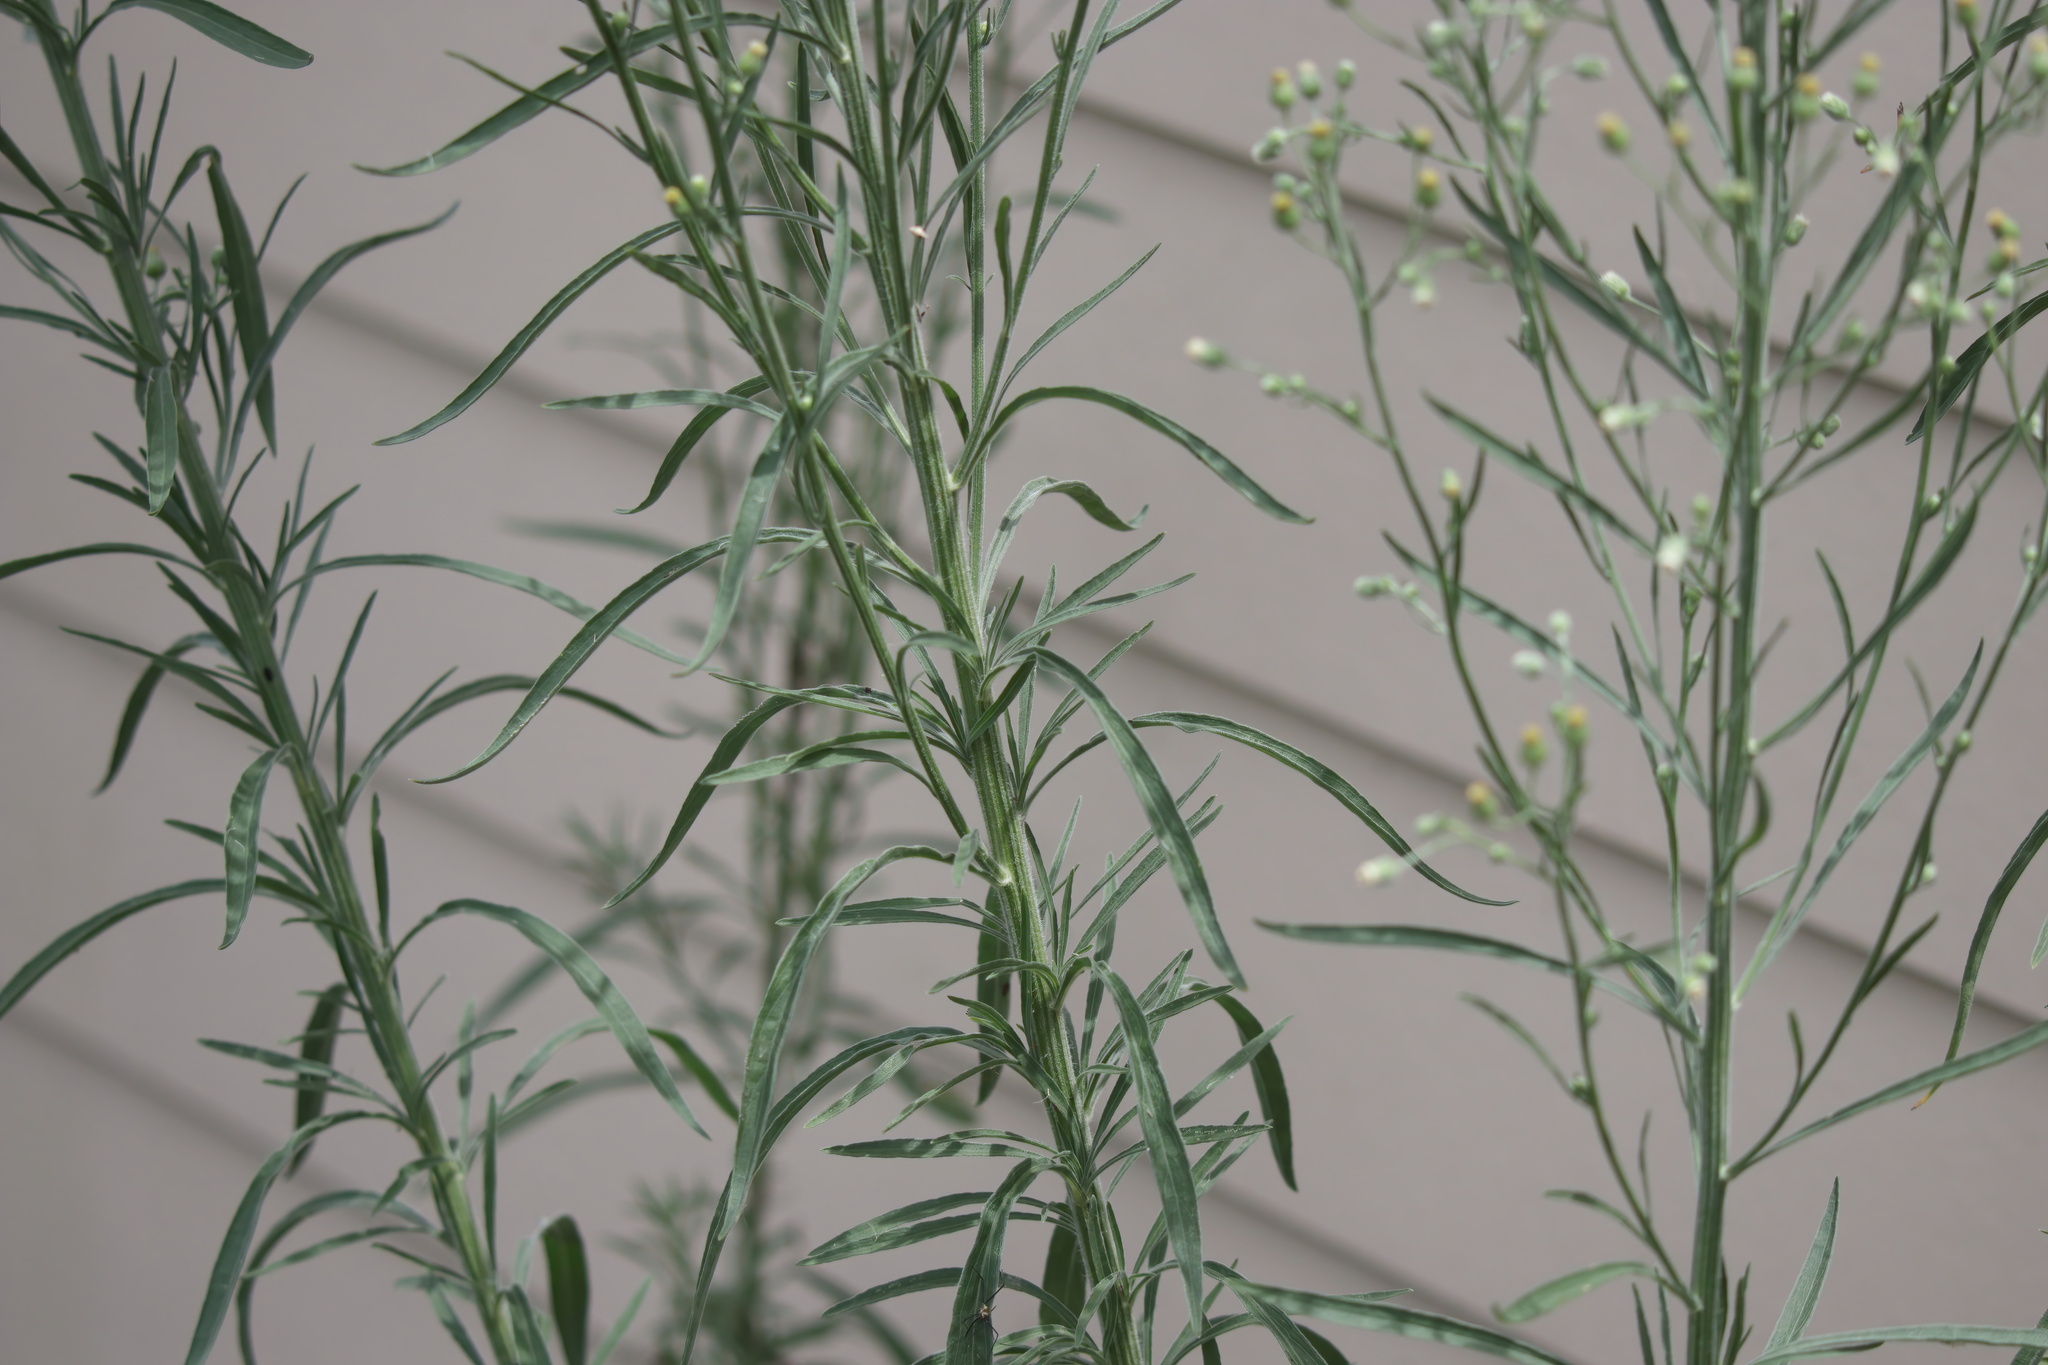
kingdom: Plantae
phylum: Tracheophyta
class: Magnoliopsida
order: Asterales
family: Asteraceae
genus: Erigeron
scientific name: Erigeron sumatrensis
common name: Daisy
